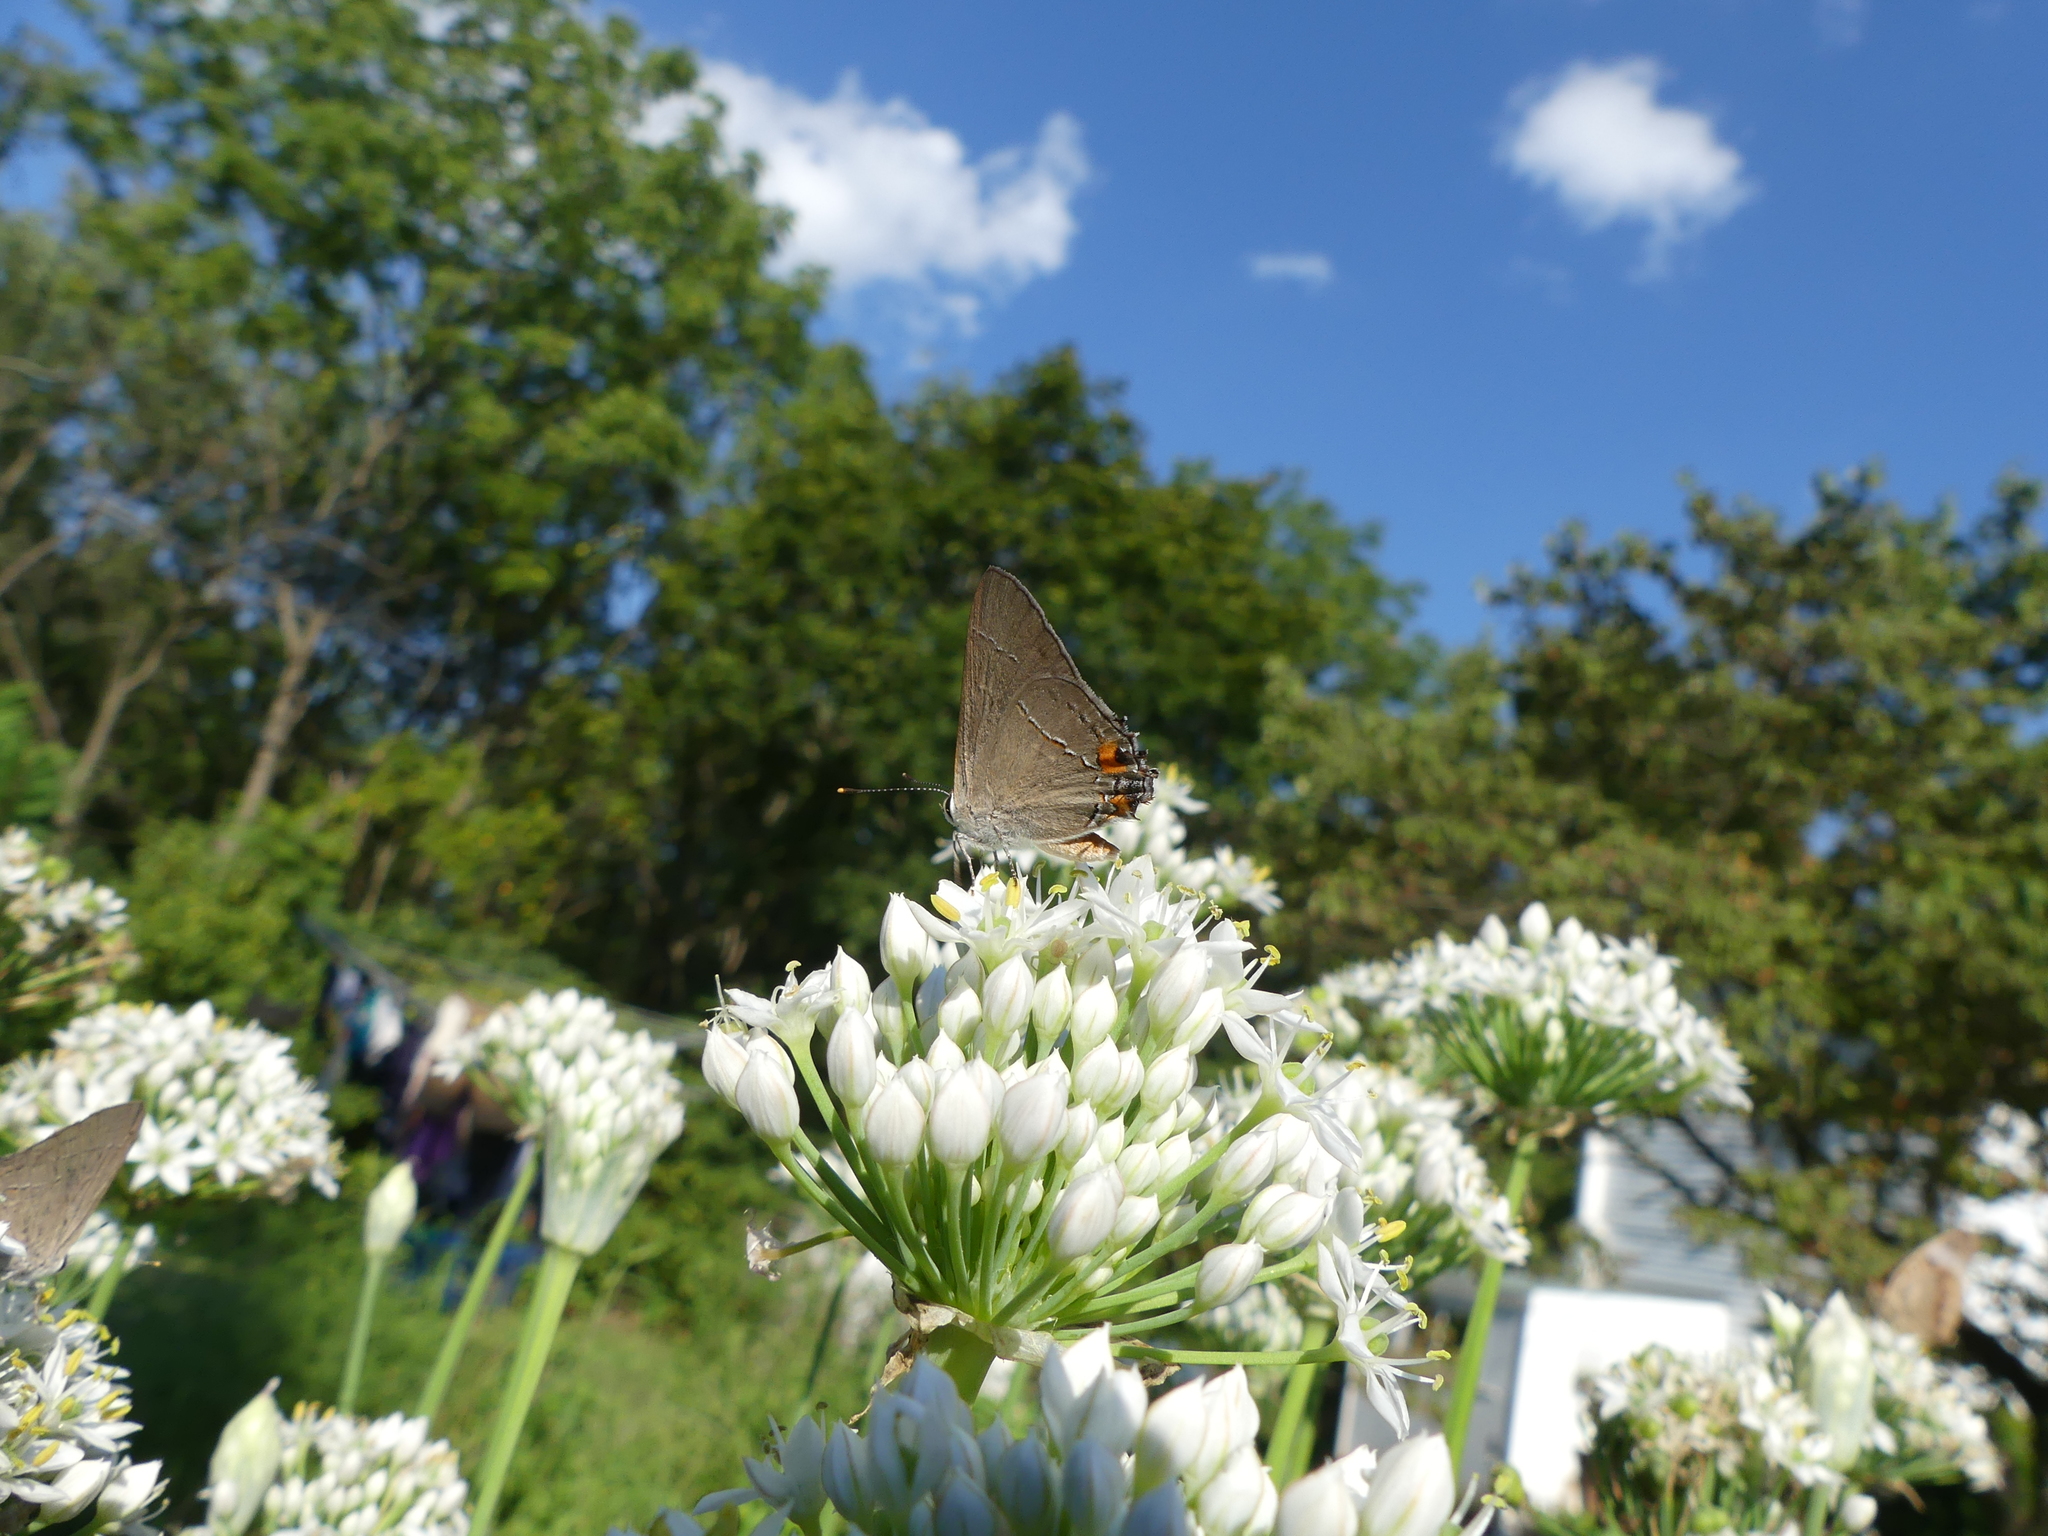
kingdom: Animalia
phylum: Arthropoda
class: Insecta
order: Lepidoptera
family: Lycaenidae
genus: Strymon
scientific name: Strymon melinus
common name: Gray hairstreak
